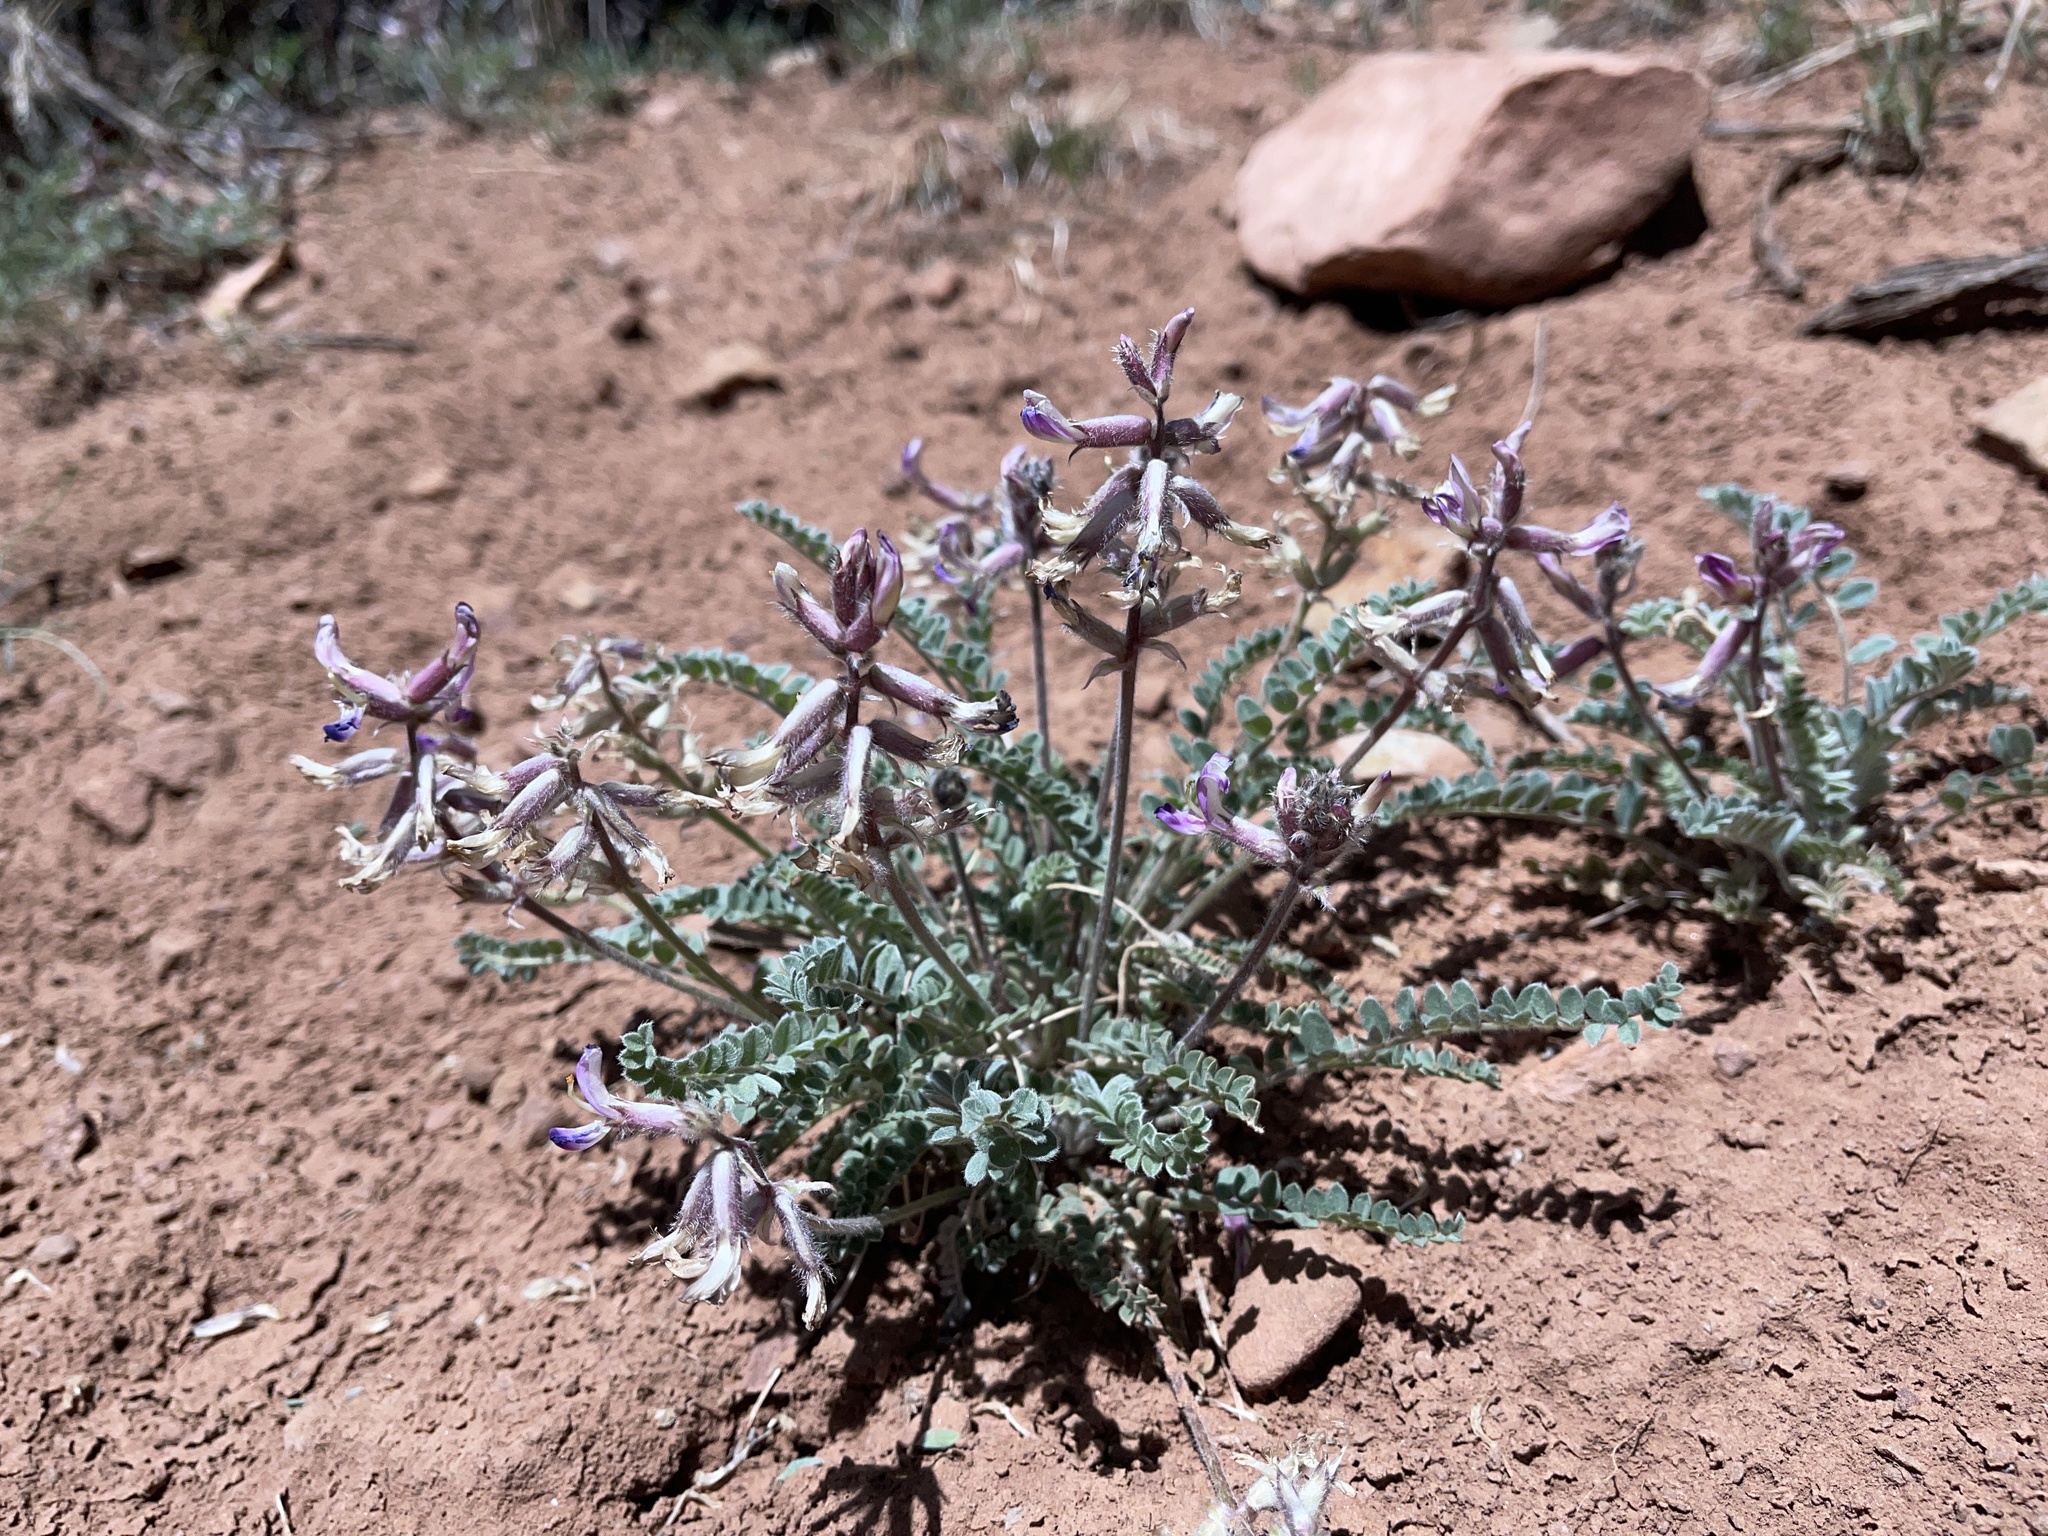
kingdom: Plantae
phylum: Tracheophyta
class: Magnoliopsida
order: Fabales
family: Fabaceae
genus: Astragalus
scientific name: Astragalus mollissimus
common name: Woolly locoweed
